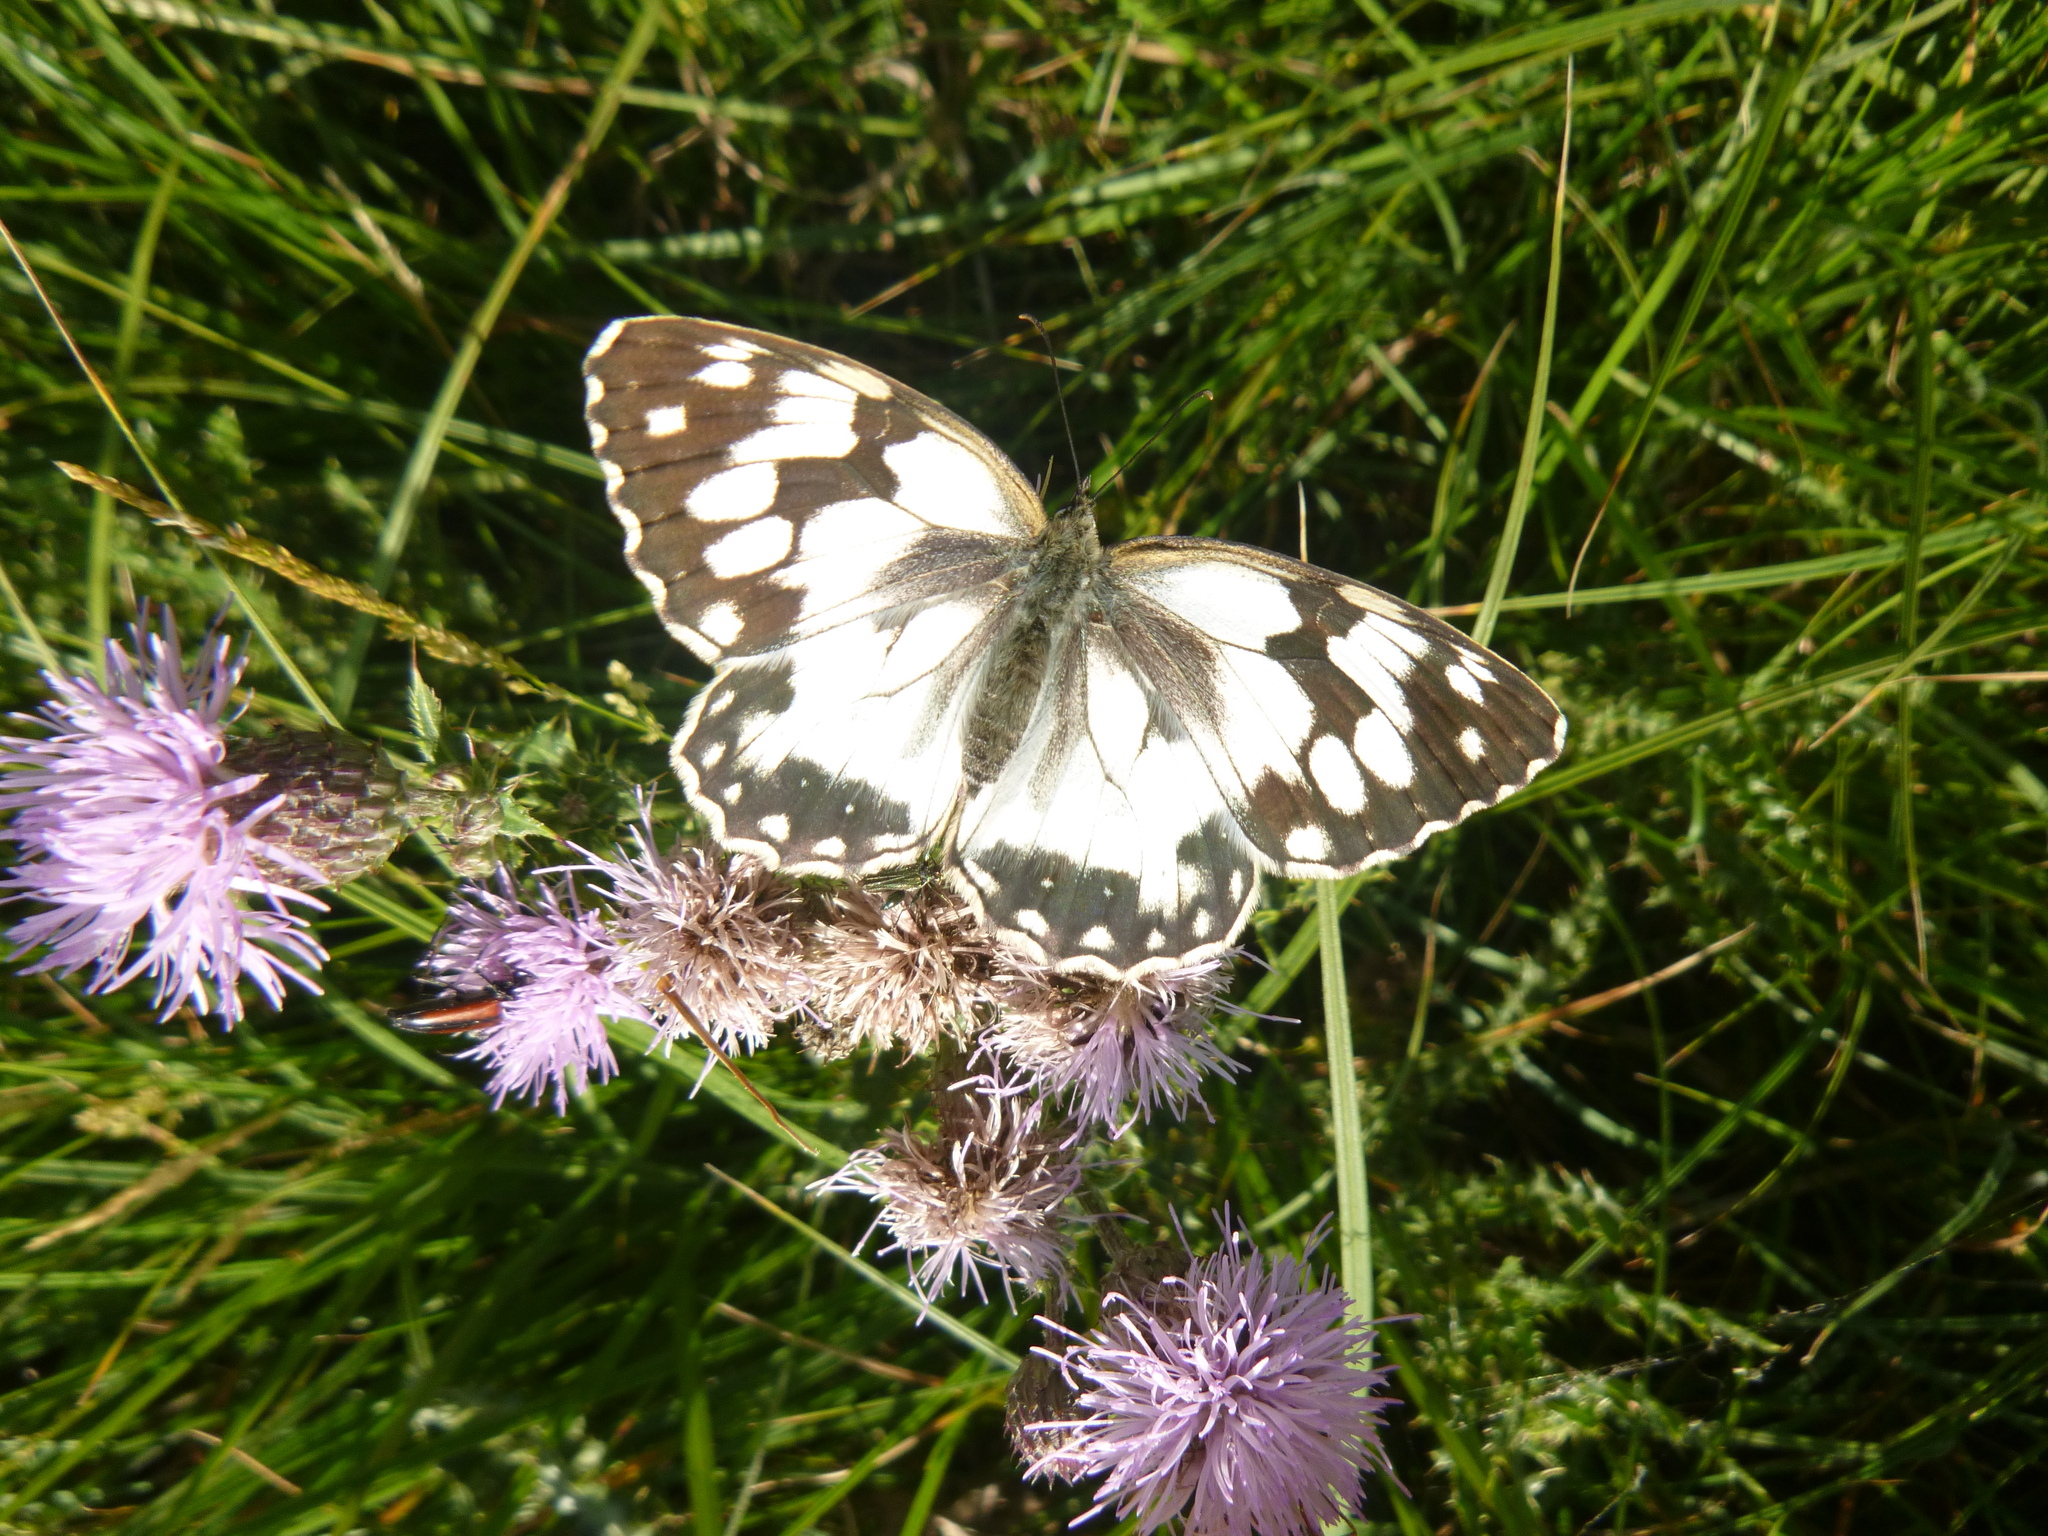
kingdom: Animalia
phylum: Arthropoda
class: Insecta
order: Lepidoptera
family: Nymphalidae
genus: Melanargia
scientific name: Melanargia lachesis
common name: Iberian marbled white
